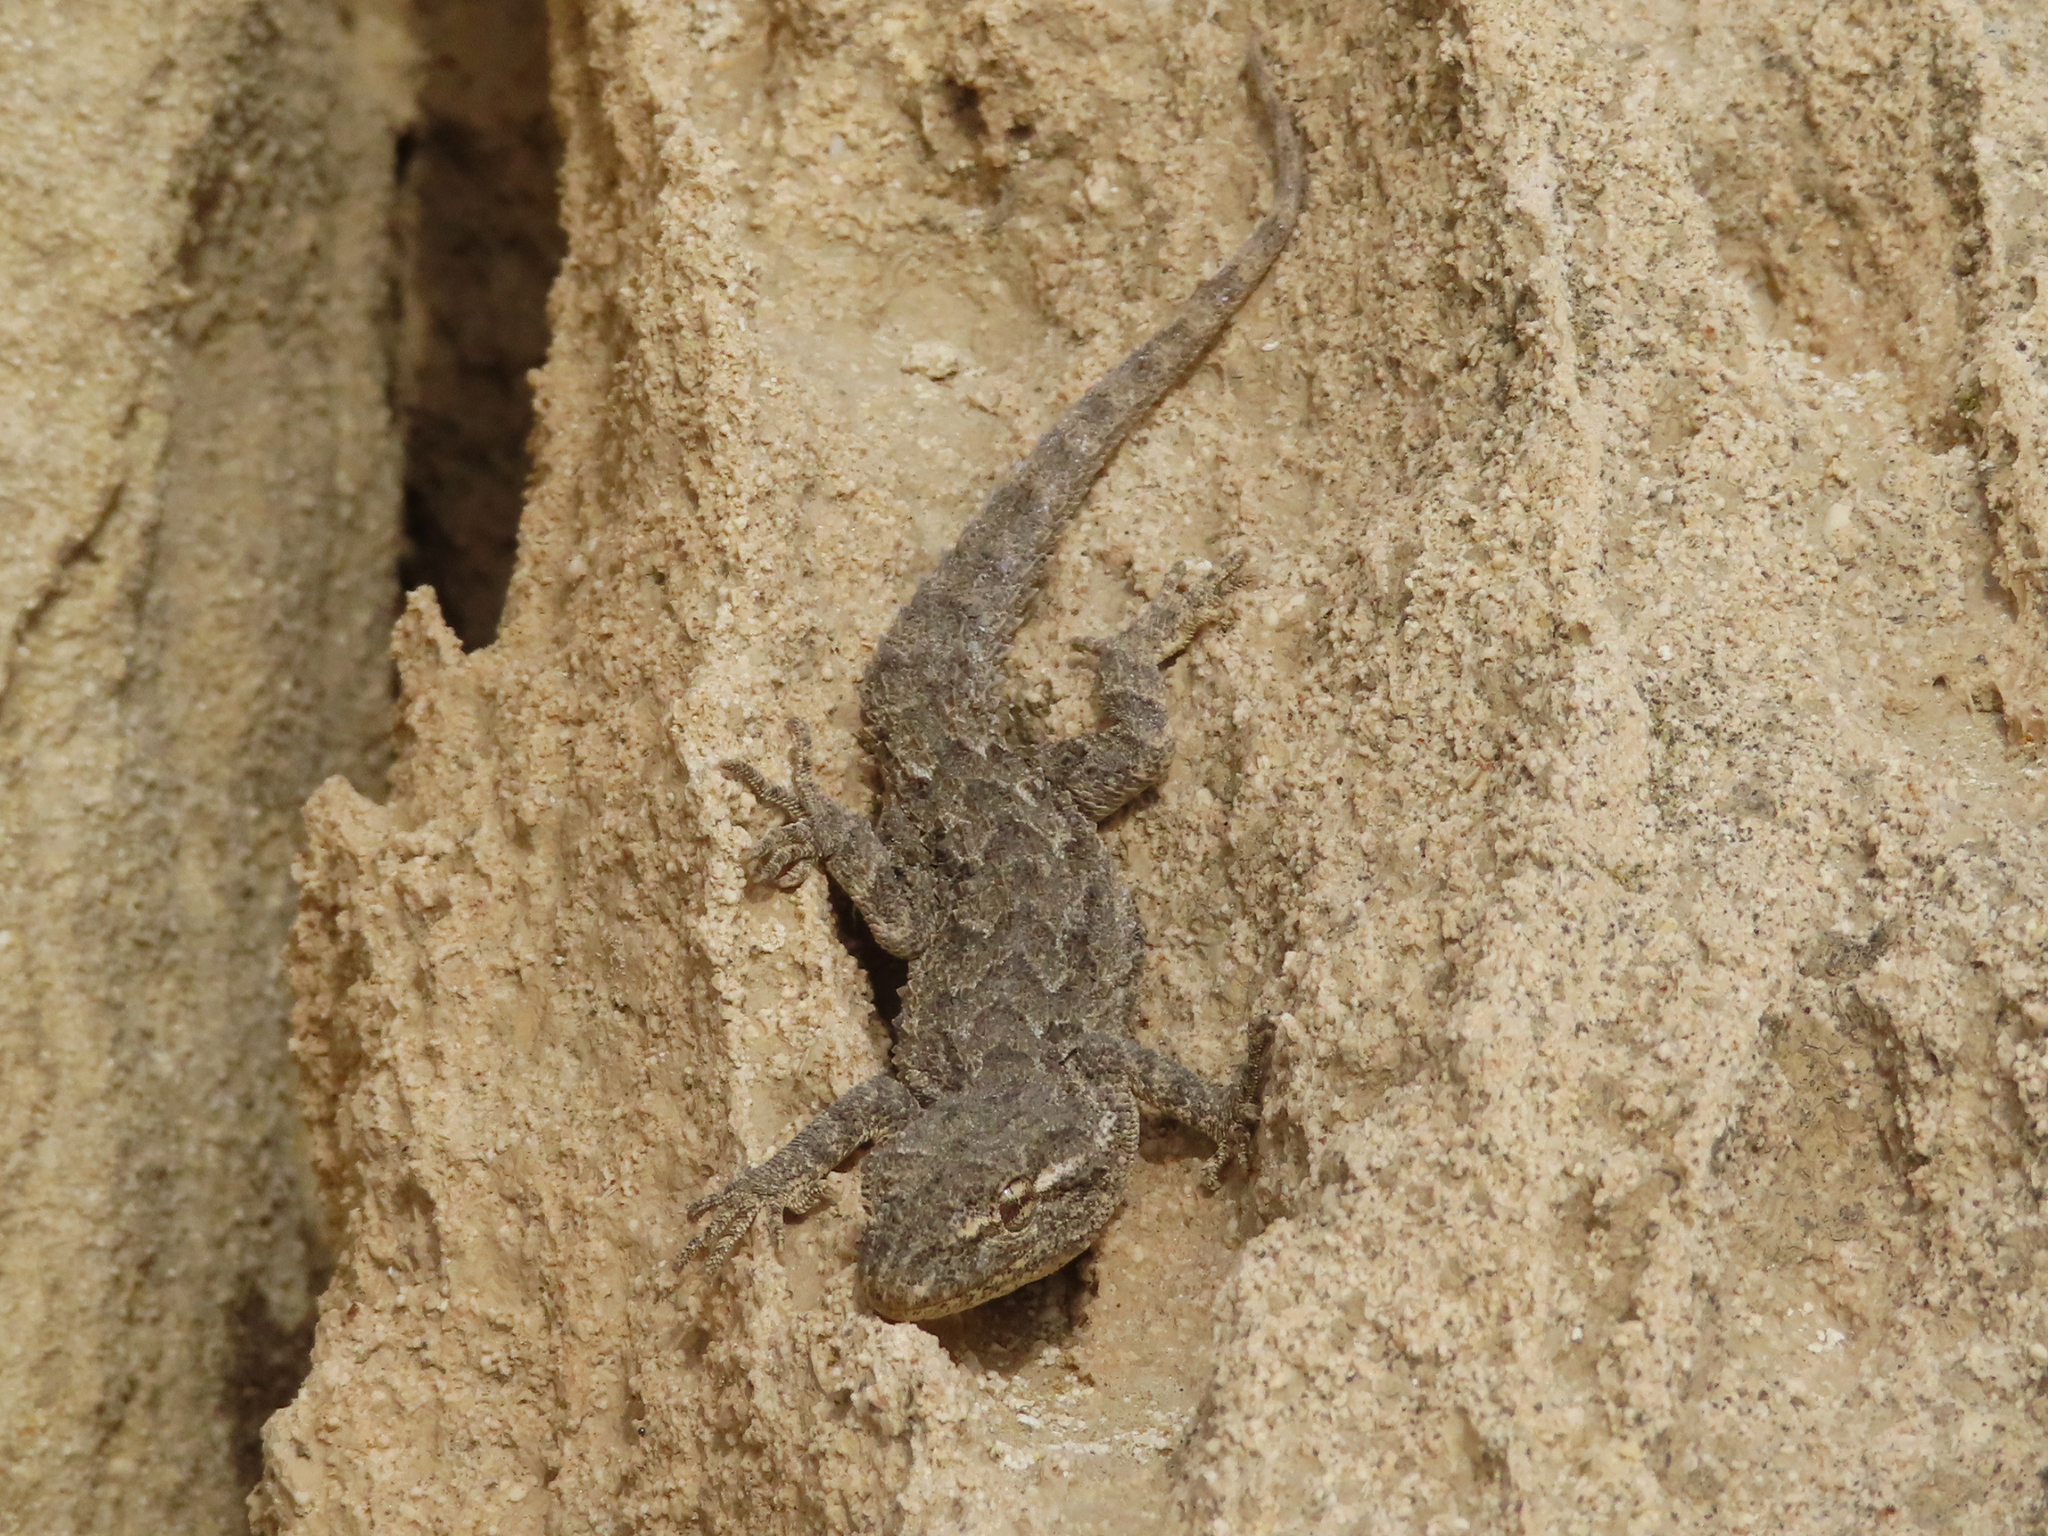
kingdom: Animalia
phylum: Chordata
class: Squamata
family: Gekkonidae
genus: Mediodactylus
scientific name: Mediodactylus russowii
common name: Grey thin-toed gecko
